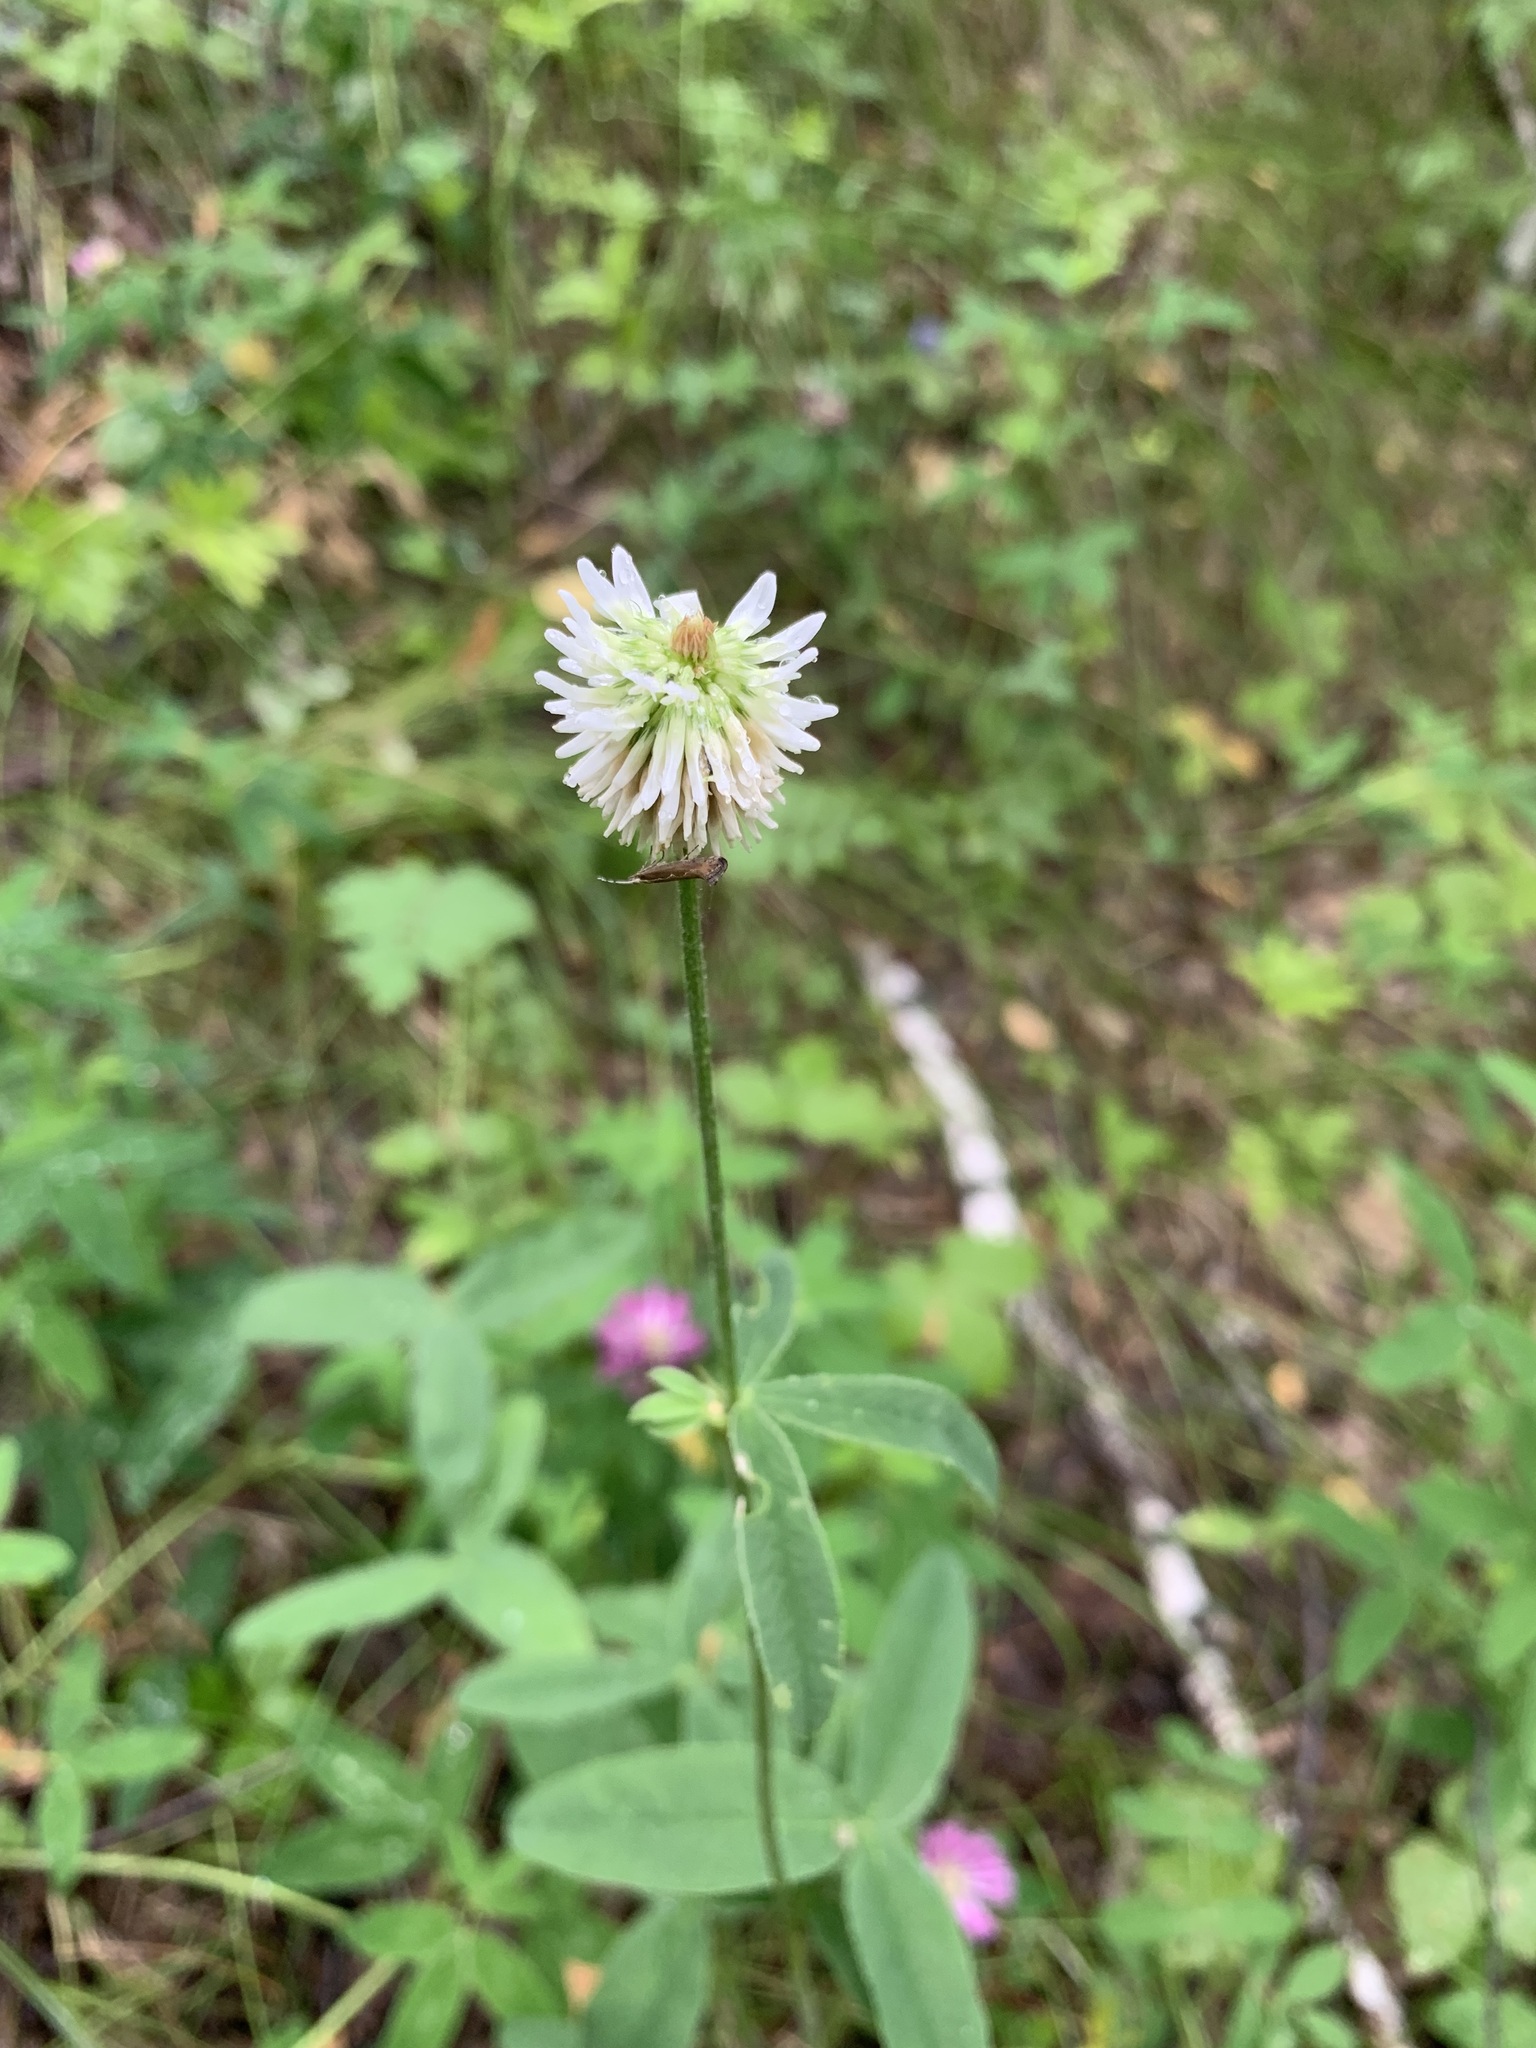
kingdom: Plantae
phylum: Tracheophyta
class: Magnoliopsida
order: Fabales
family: Fabaceae
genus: Trifolium
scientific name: Trifolium montanum
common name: Mountain clover
